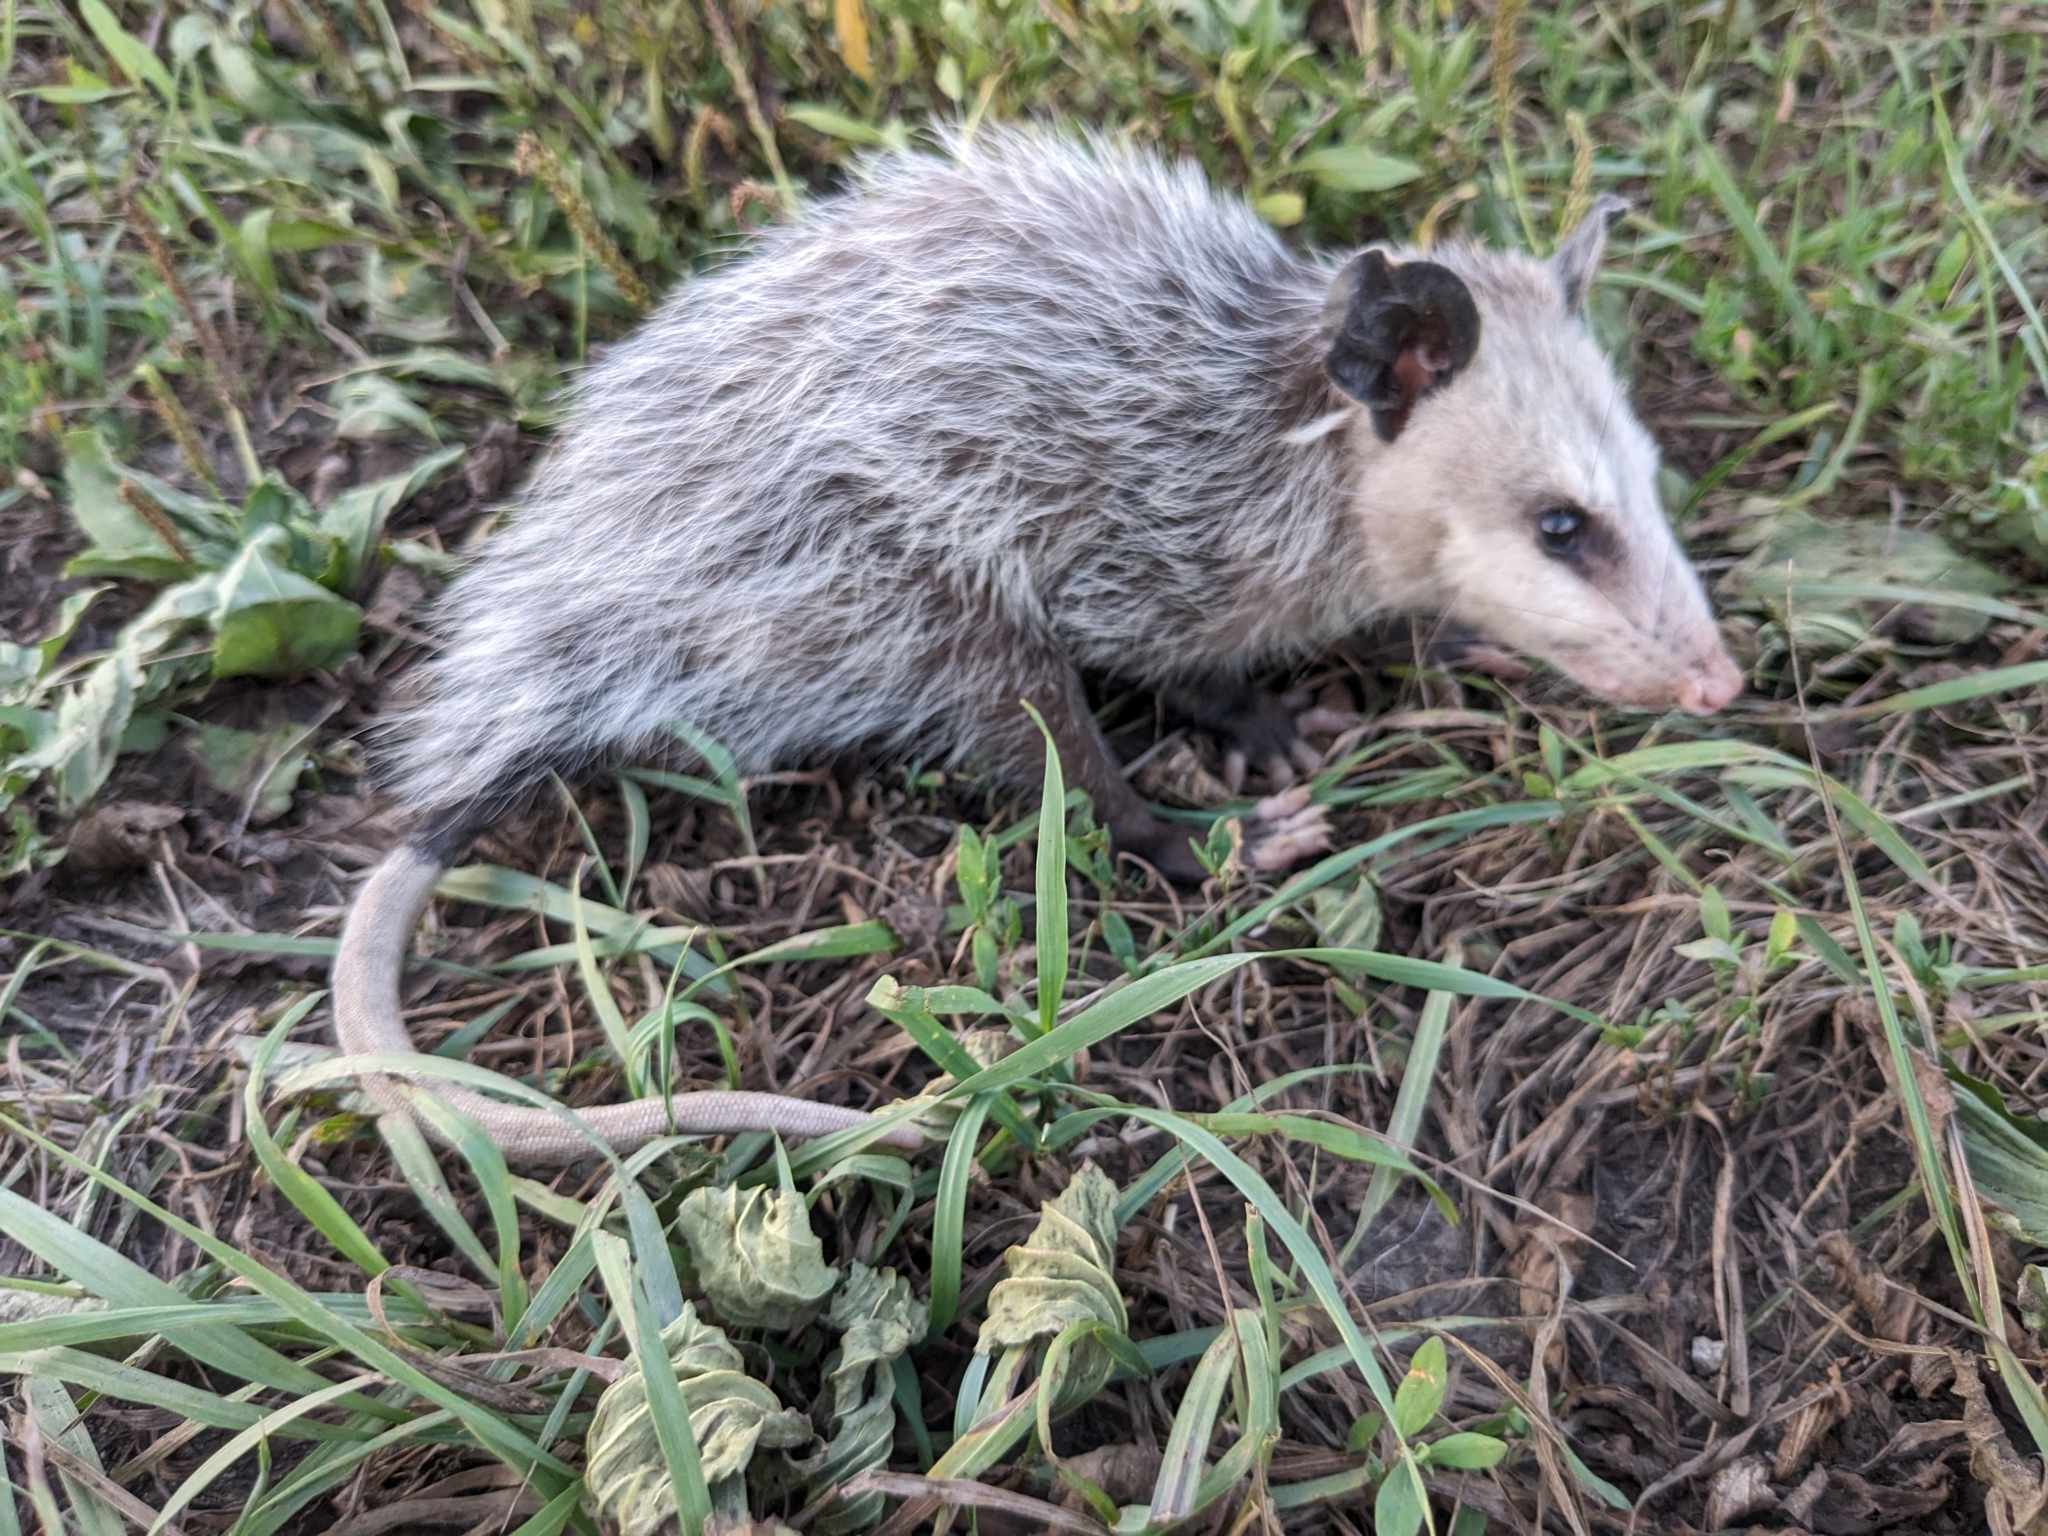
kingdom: Animalia
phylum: Chordata
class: Mammalia
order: Didelphimorphia
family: Didelphidae
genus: Didelphis
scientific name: Didelphis virginiana
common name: Virginia opossum
